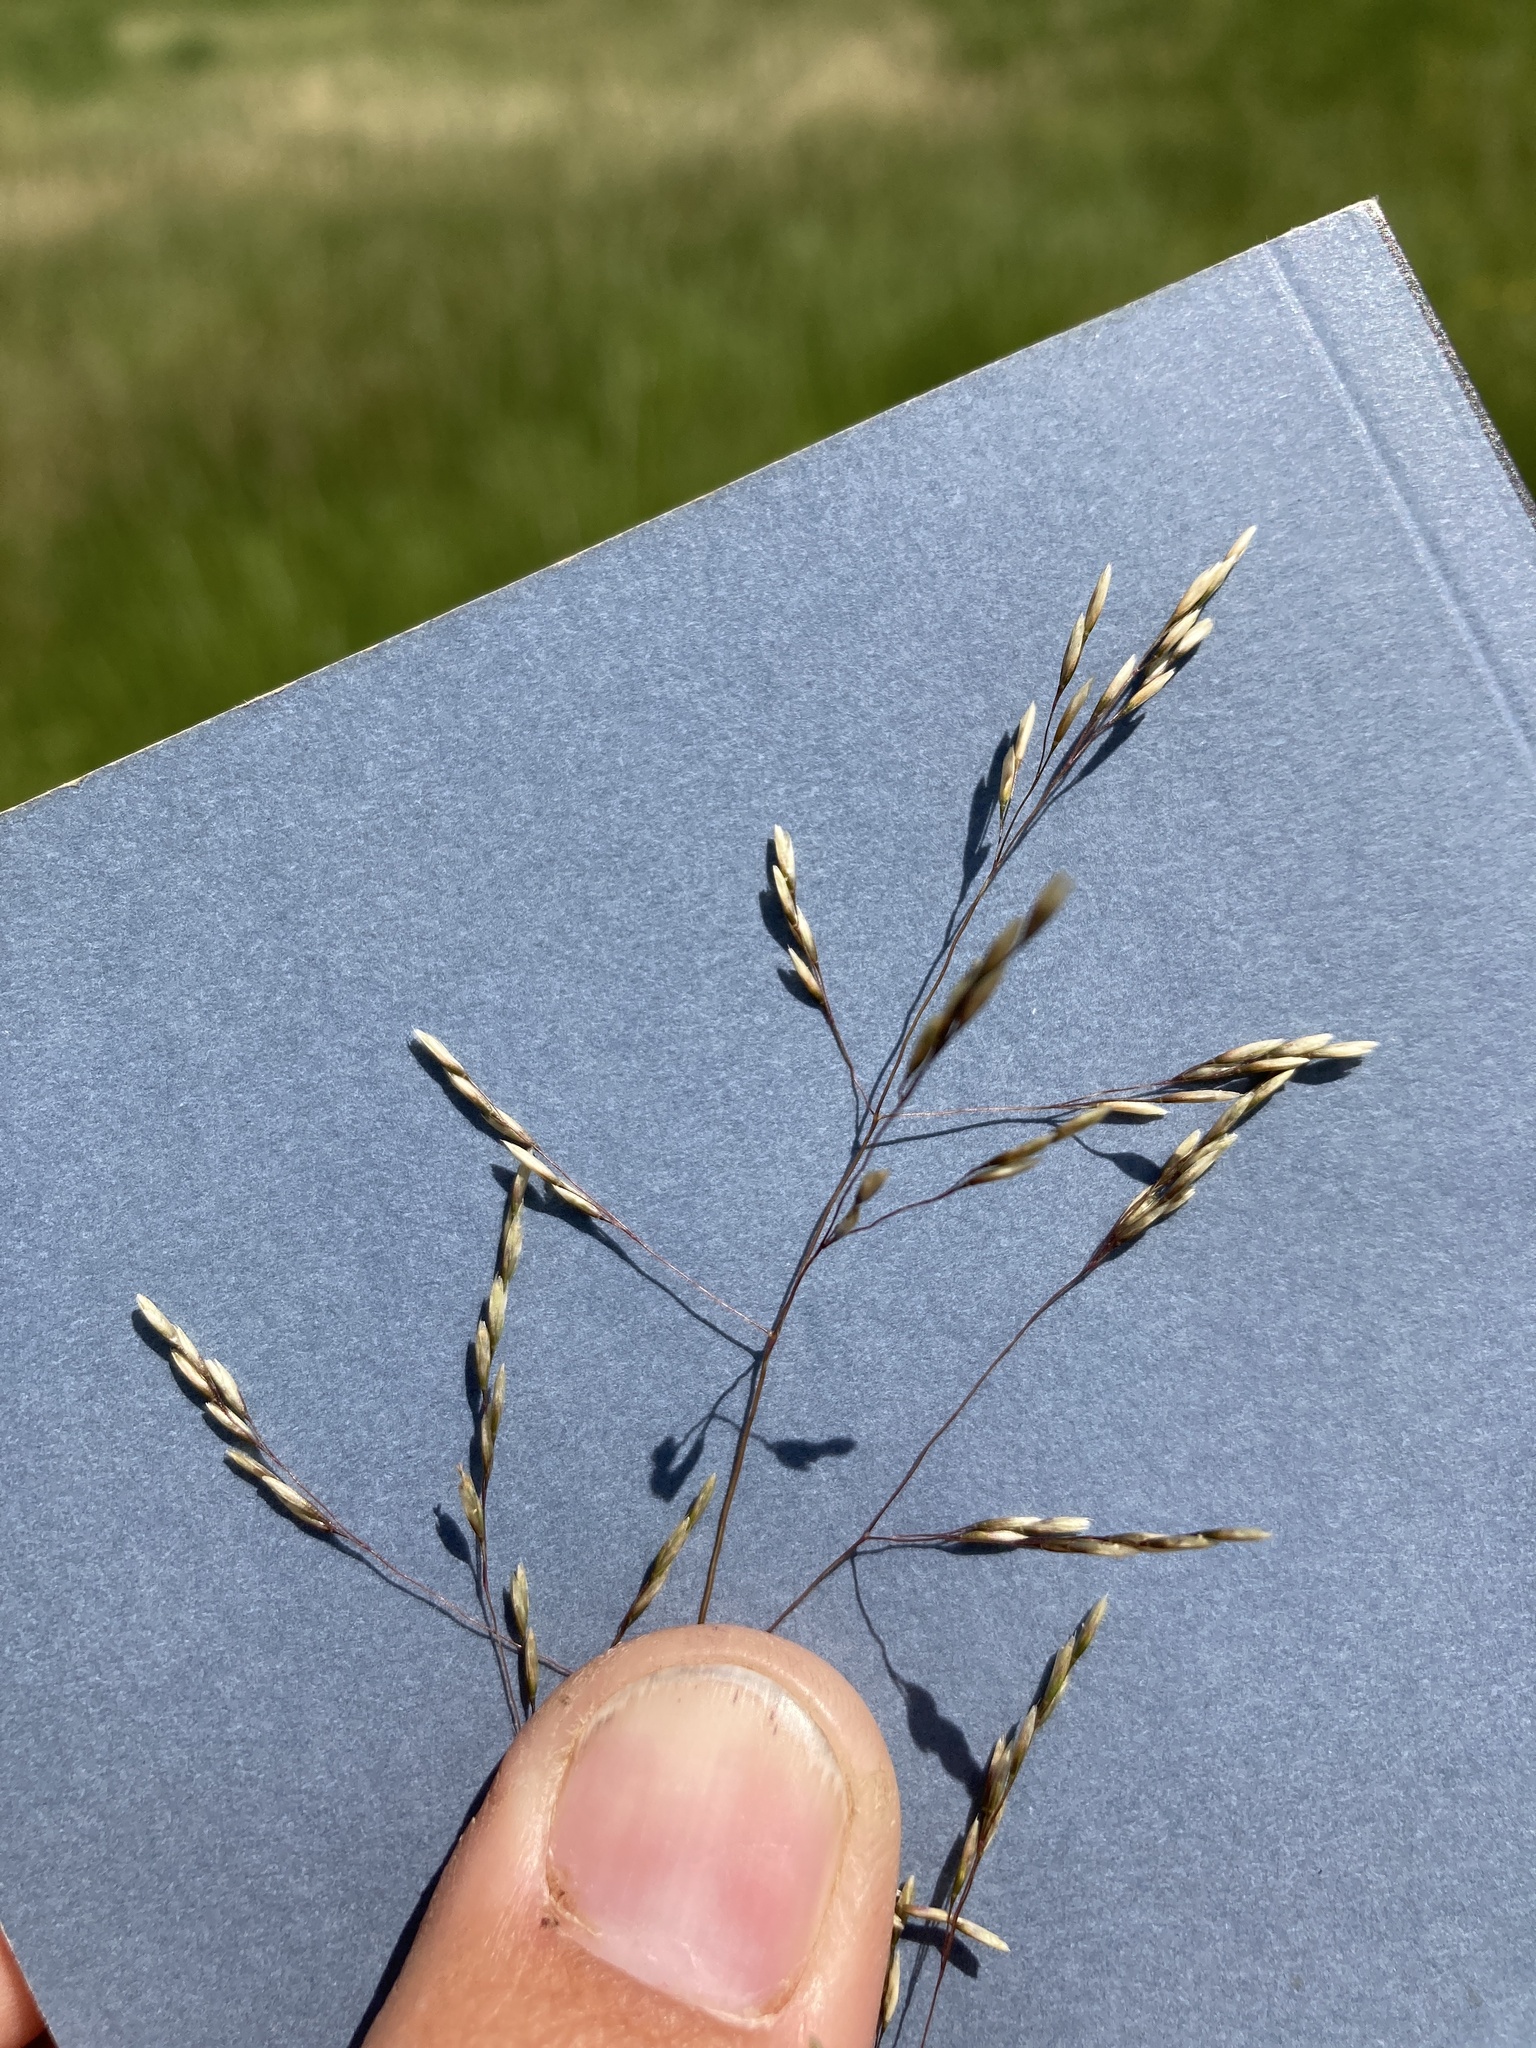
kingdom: Plantae
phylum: Tracheophyta
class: Liliopsida
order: Poales
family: Poaceae
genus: Deschampsia
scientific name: Deschampsia cespitosa
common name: Tufted hair-grass
